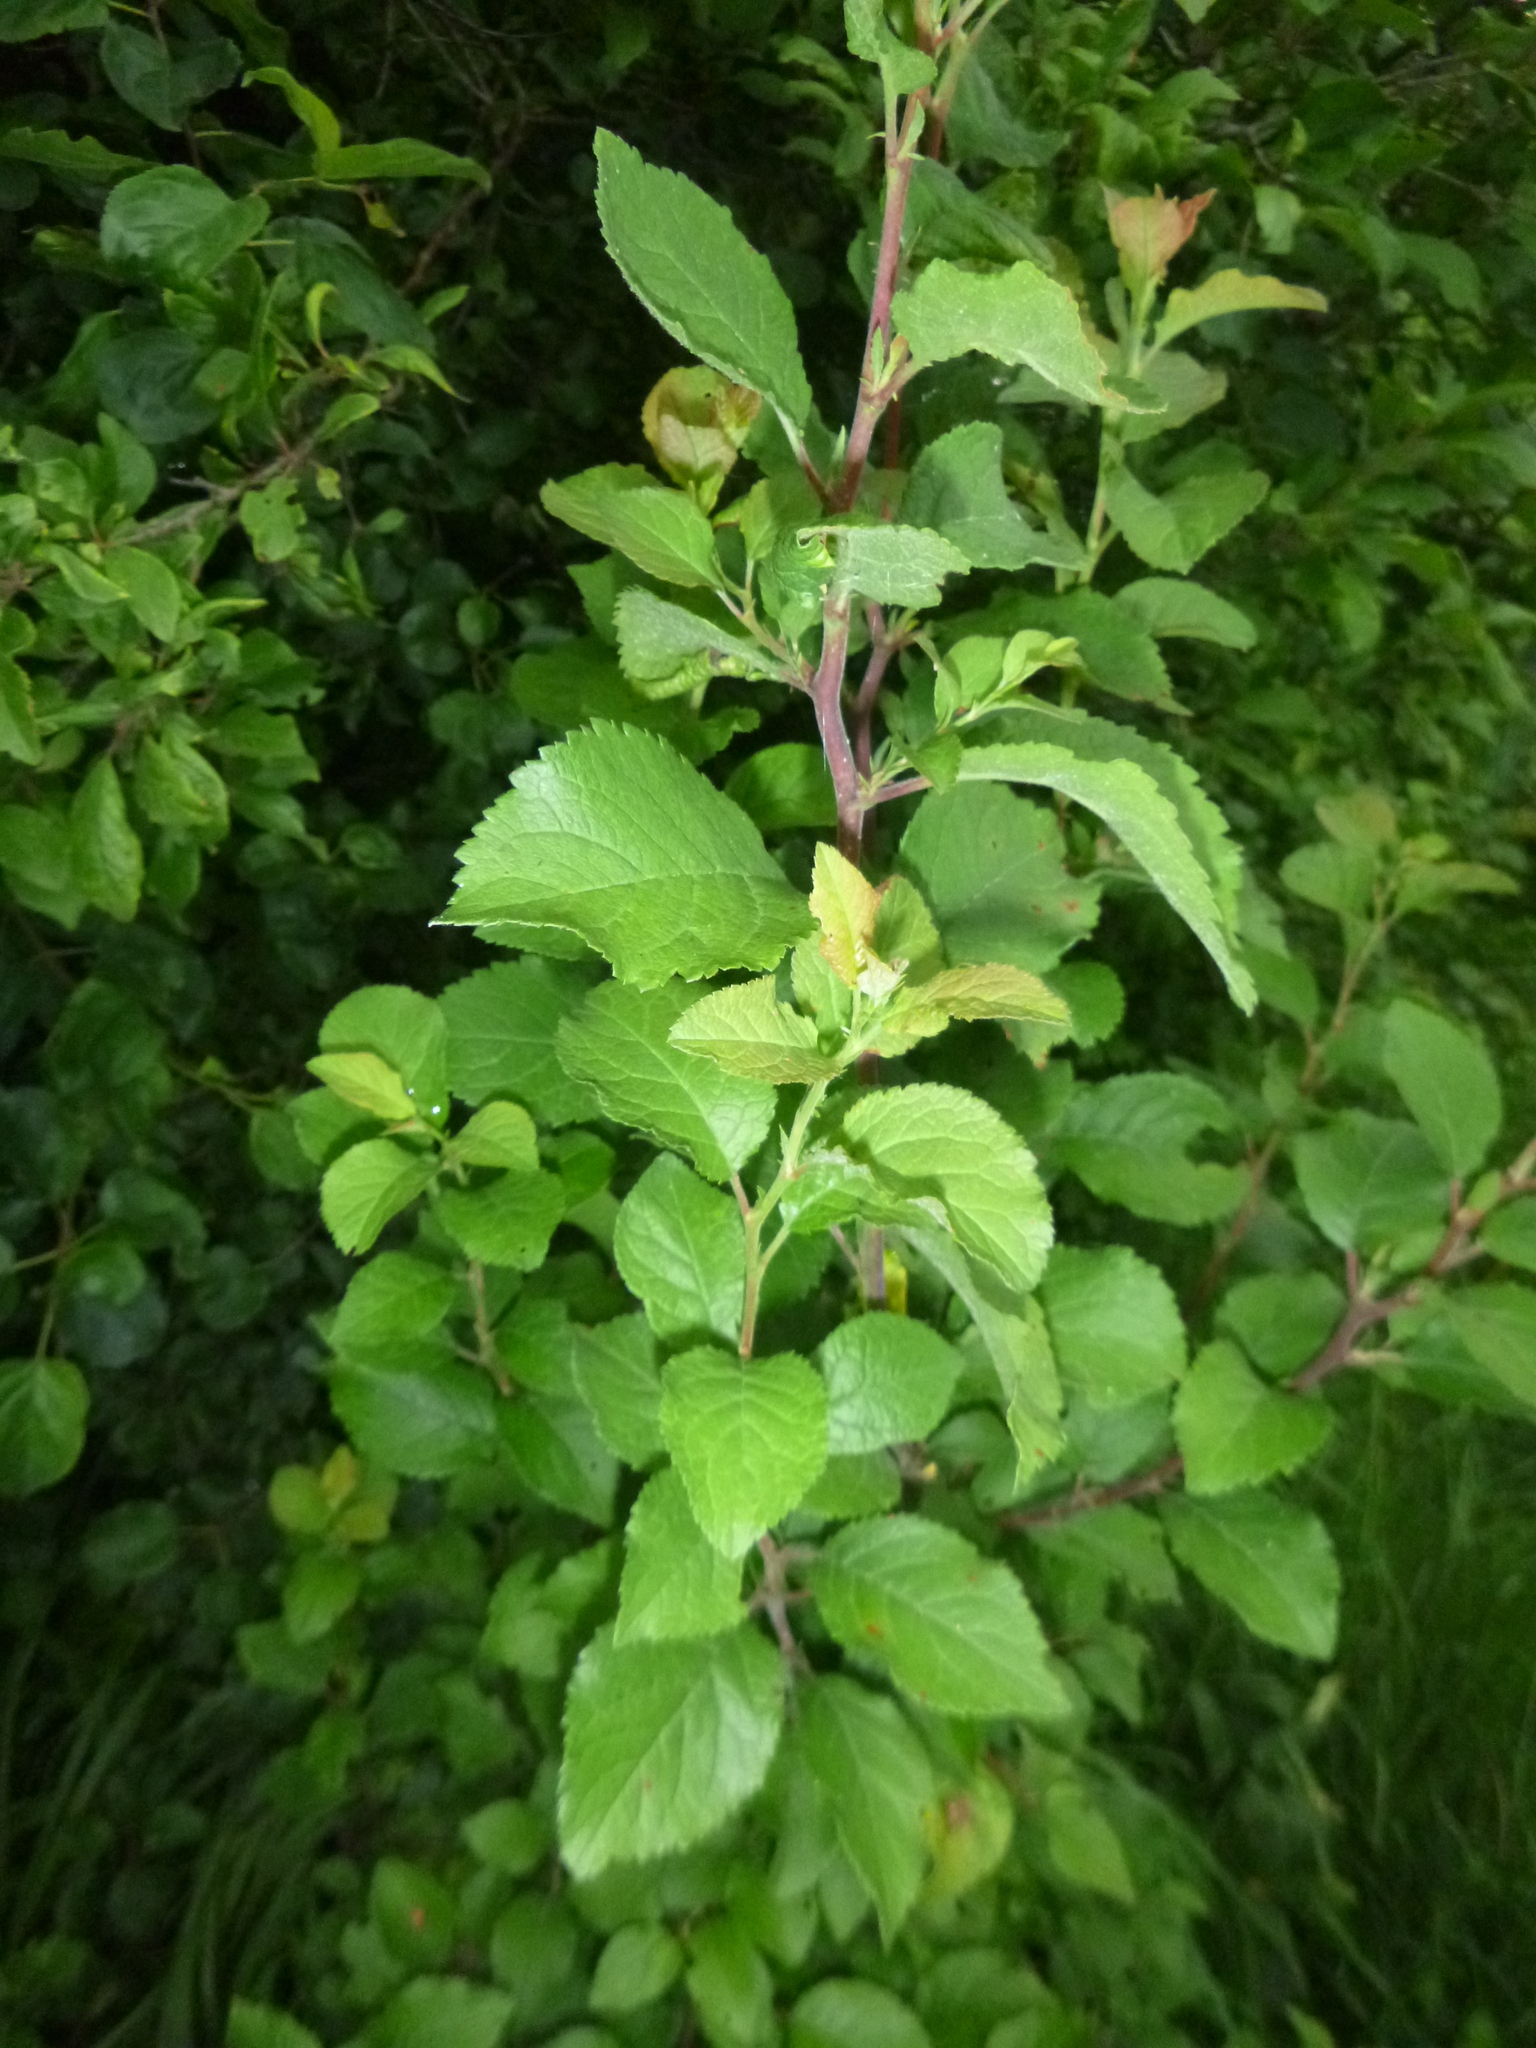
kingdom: Plantae
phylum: Tracheophyta
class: Magnoliopsida
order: Rosales
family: Rosaceae
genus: Prunus
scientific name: Prunus spinosa
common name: Blackthorn
